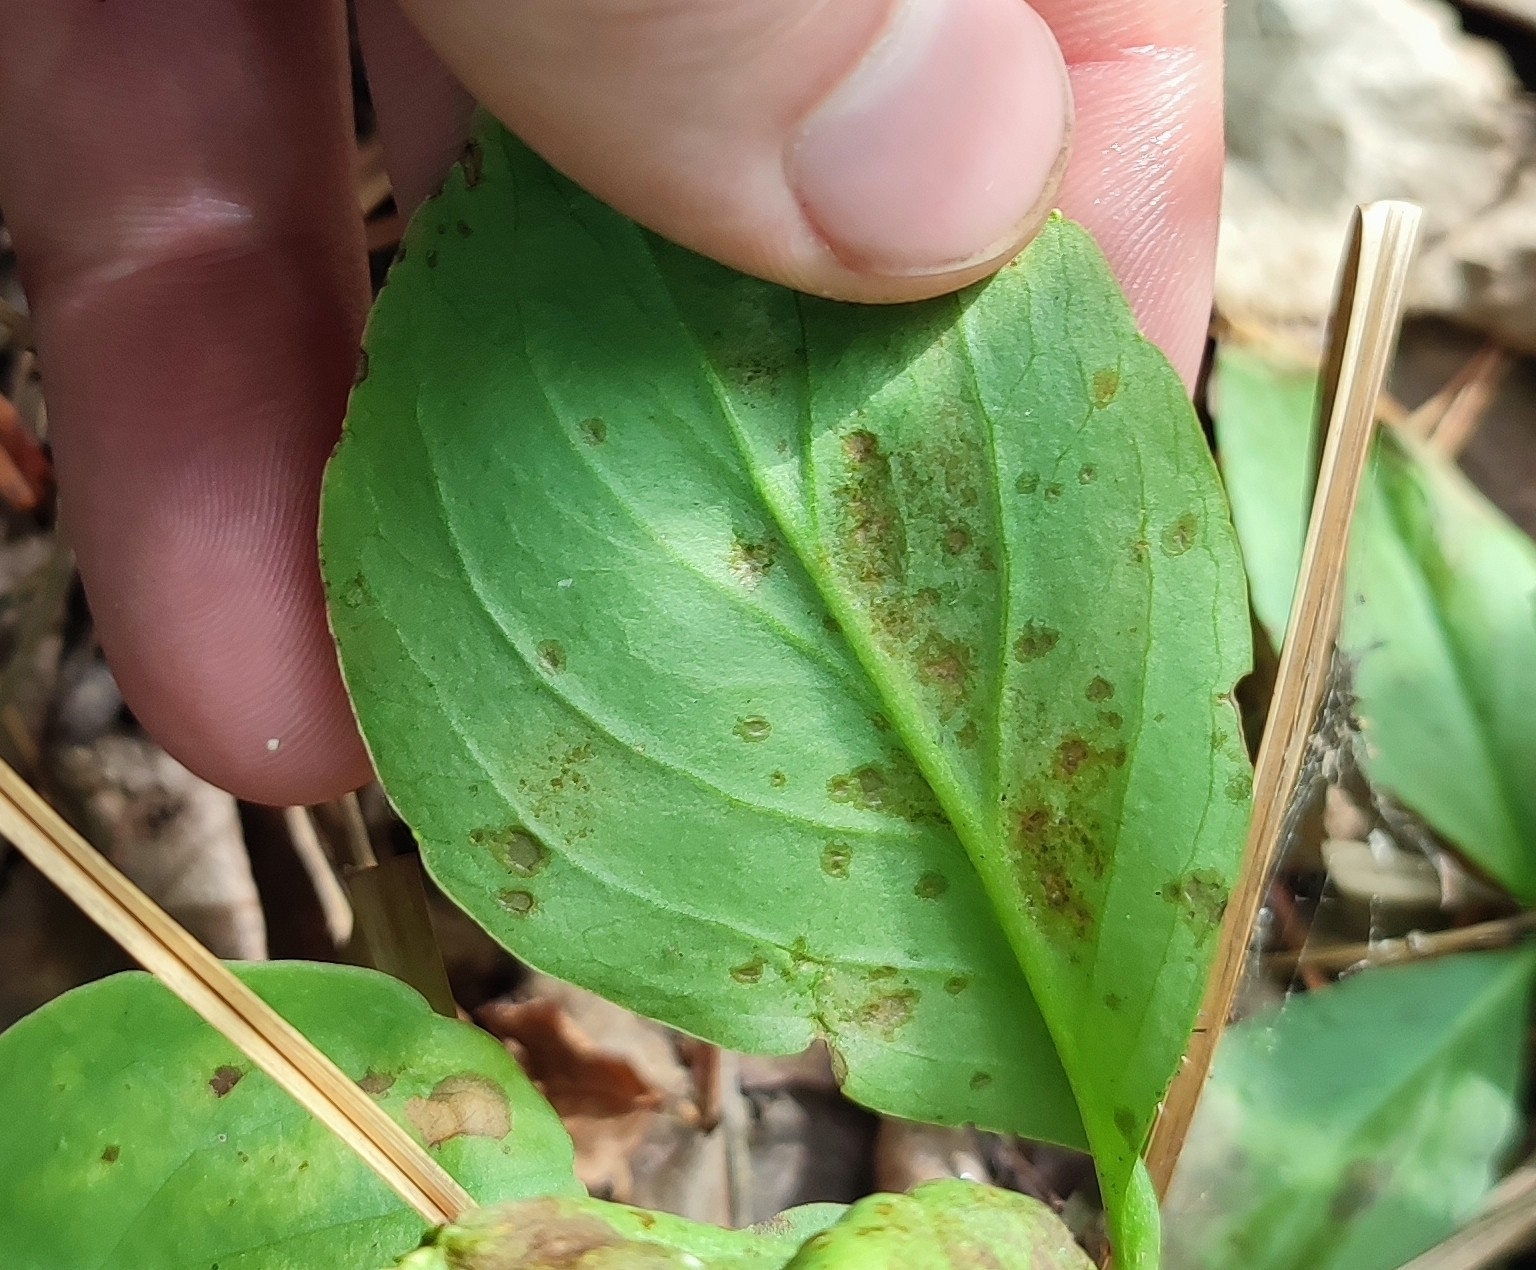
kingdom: Plantae
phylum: Tracheophyta
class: Magnoliopsida
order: Asterales
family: Menyanthaceae
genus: Menyanthes
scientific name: Menyanthes trifoliata
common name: Bogbean
